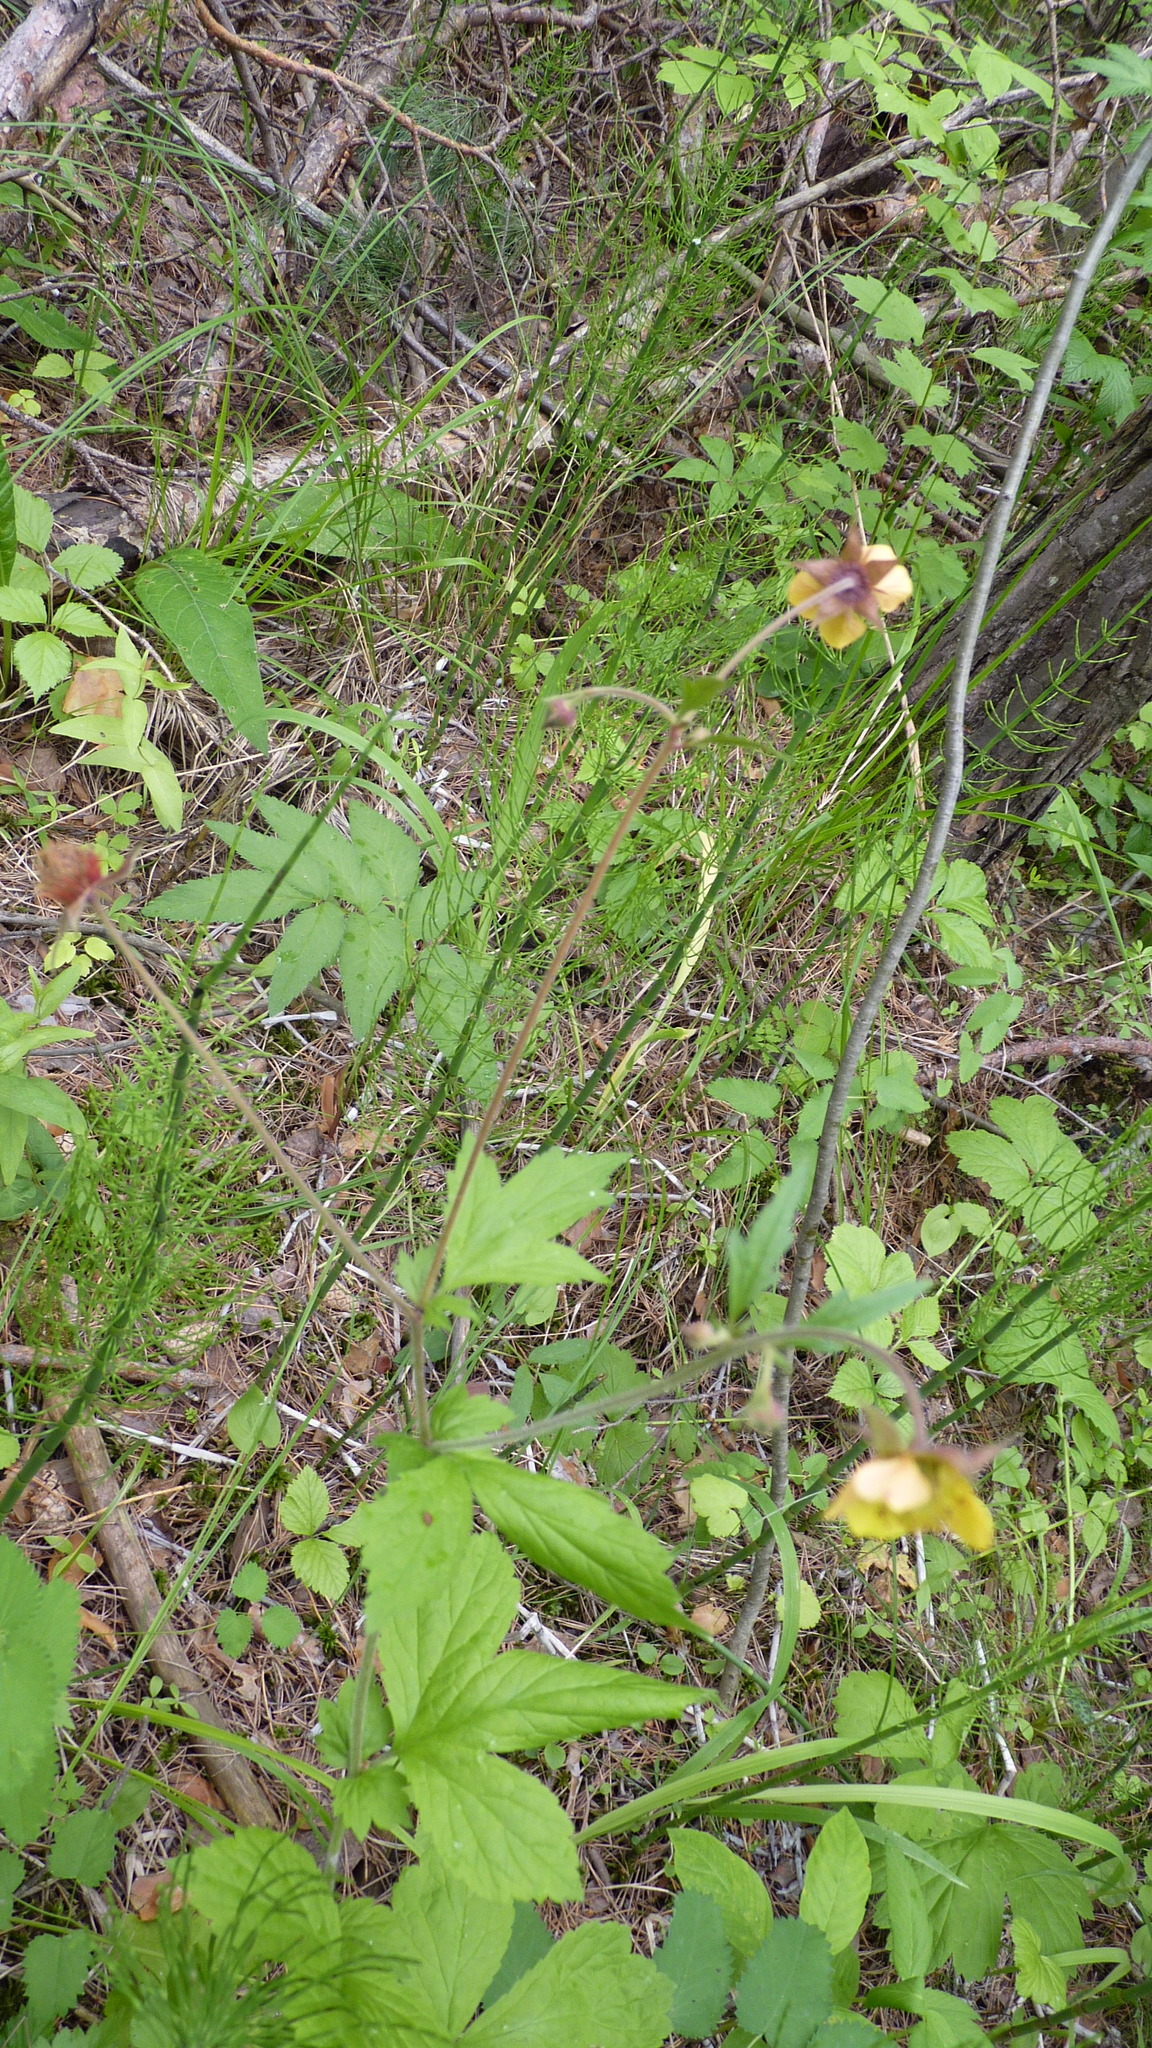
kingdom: Plantae
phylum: Tracheophyta
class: Magnoliopsida
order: Rosales
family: Rosaceae
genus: Geum
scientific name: Geum aleppicum
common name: Yellow avens
